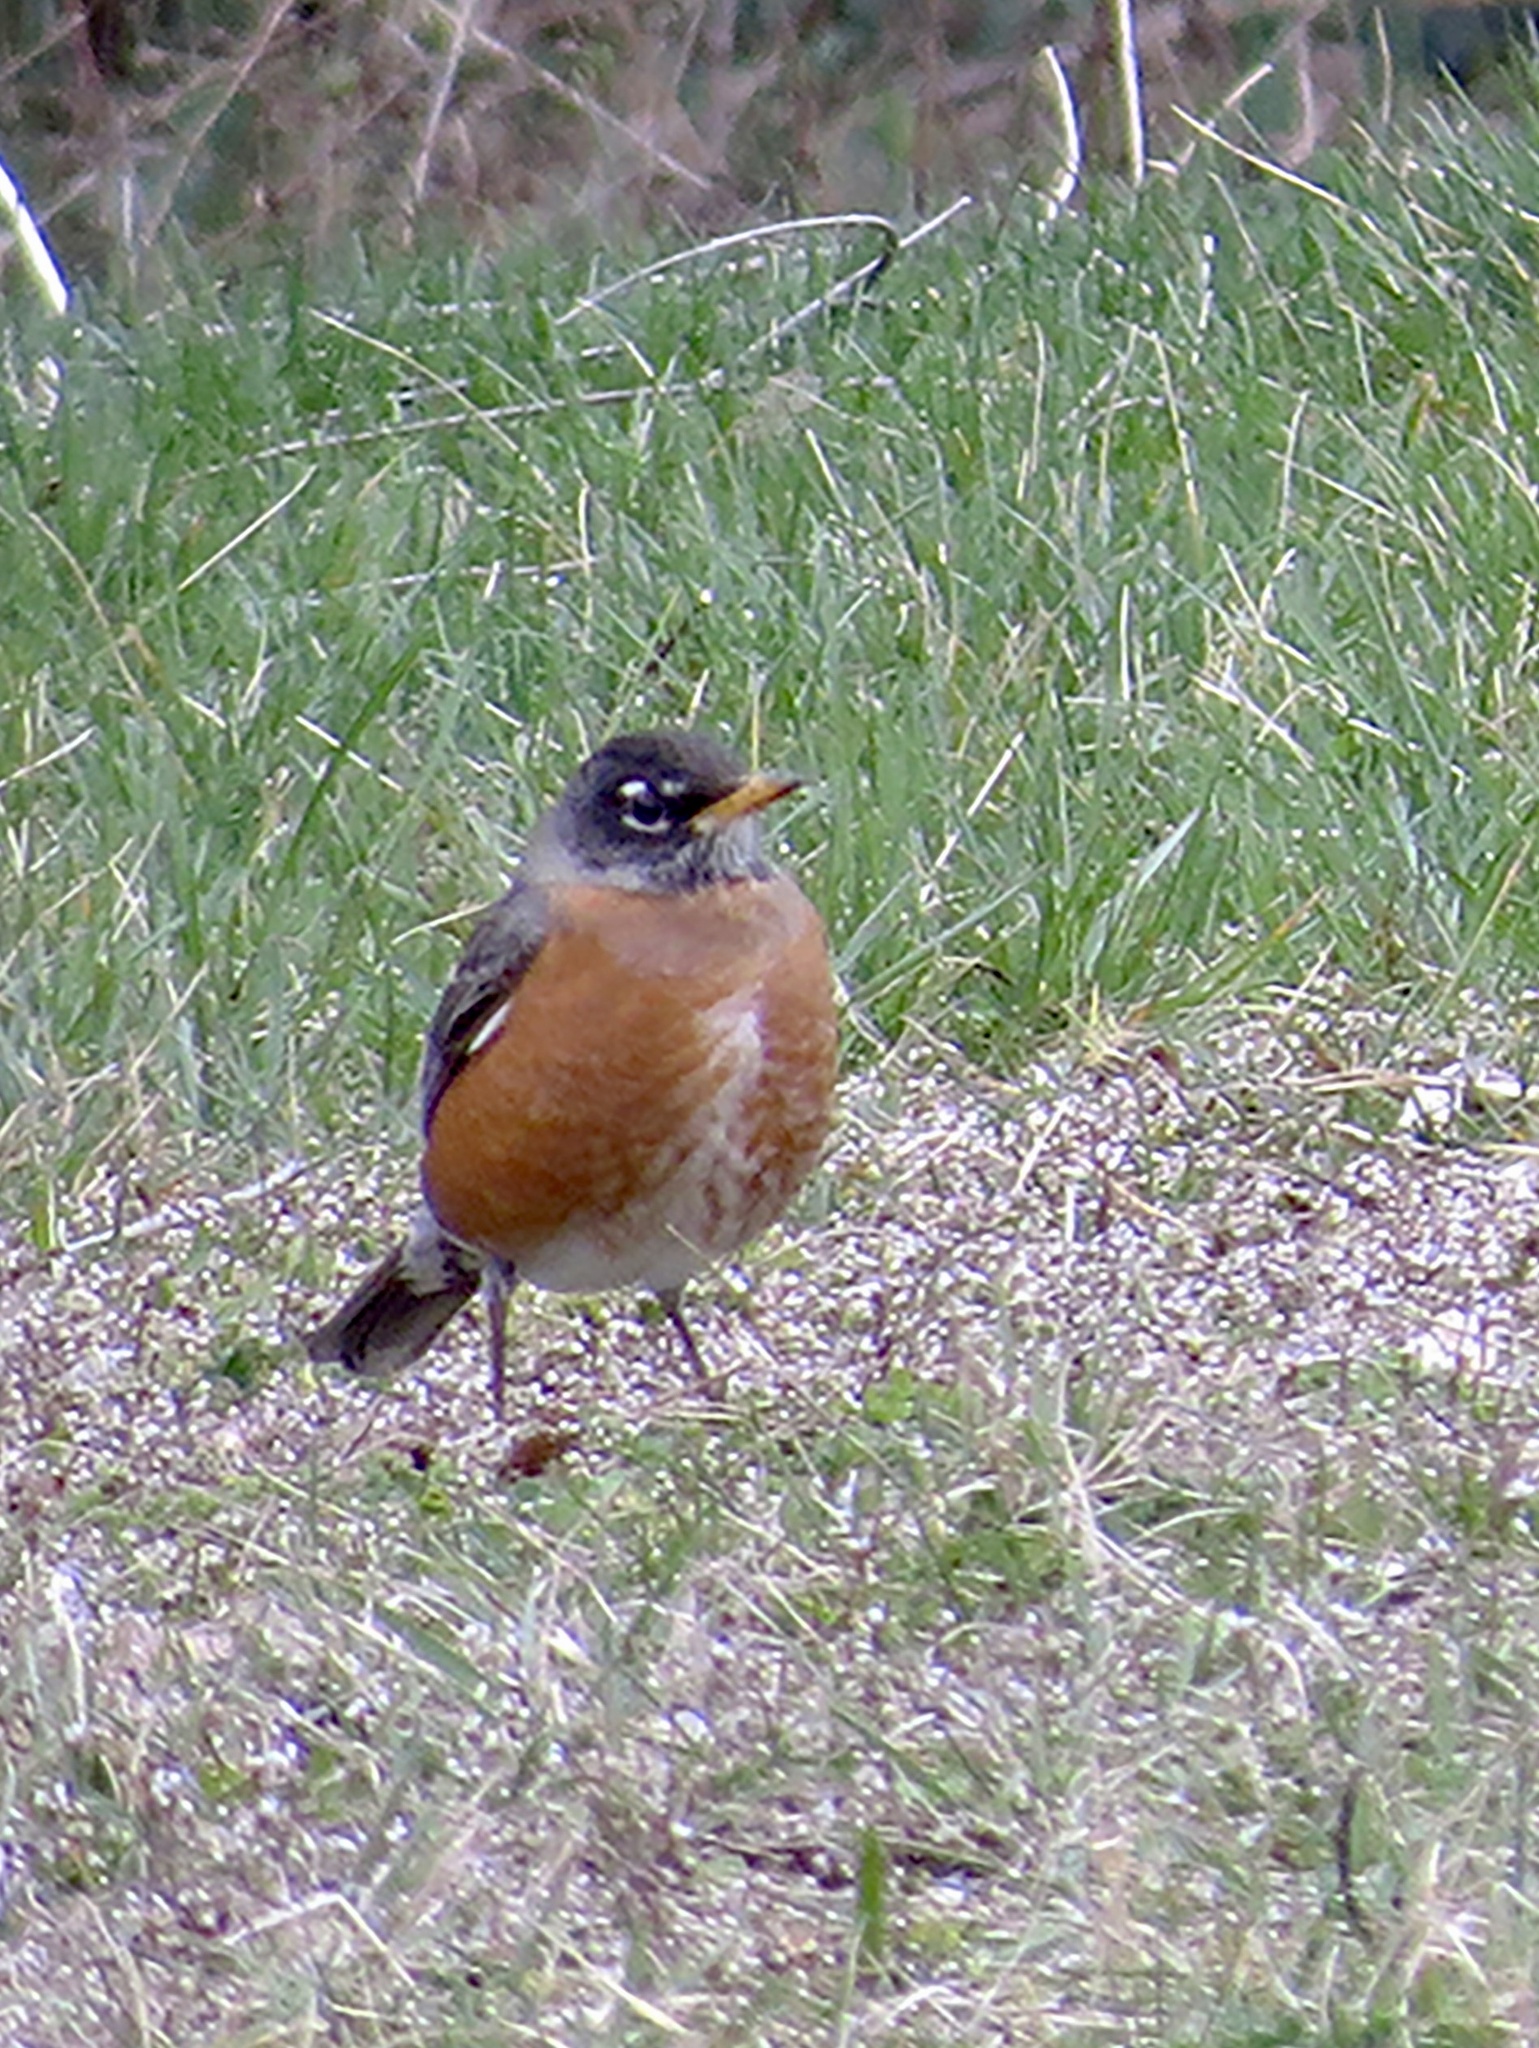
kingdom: Animalia
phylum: Chordata
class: Aves
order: Passeriformes
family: Turdidae
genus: Turdus
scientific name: Turdus migratorius
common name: American robin
